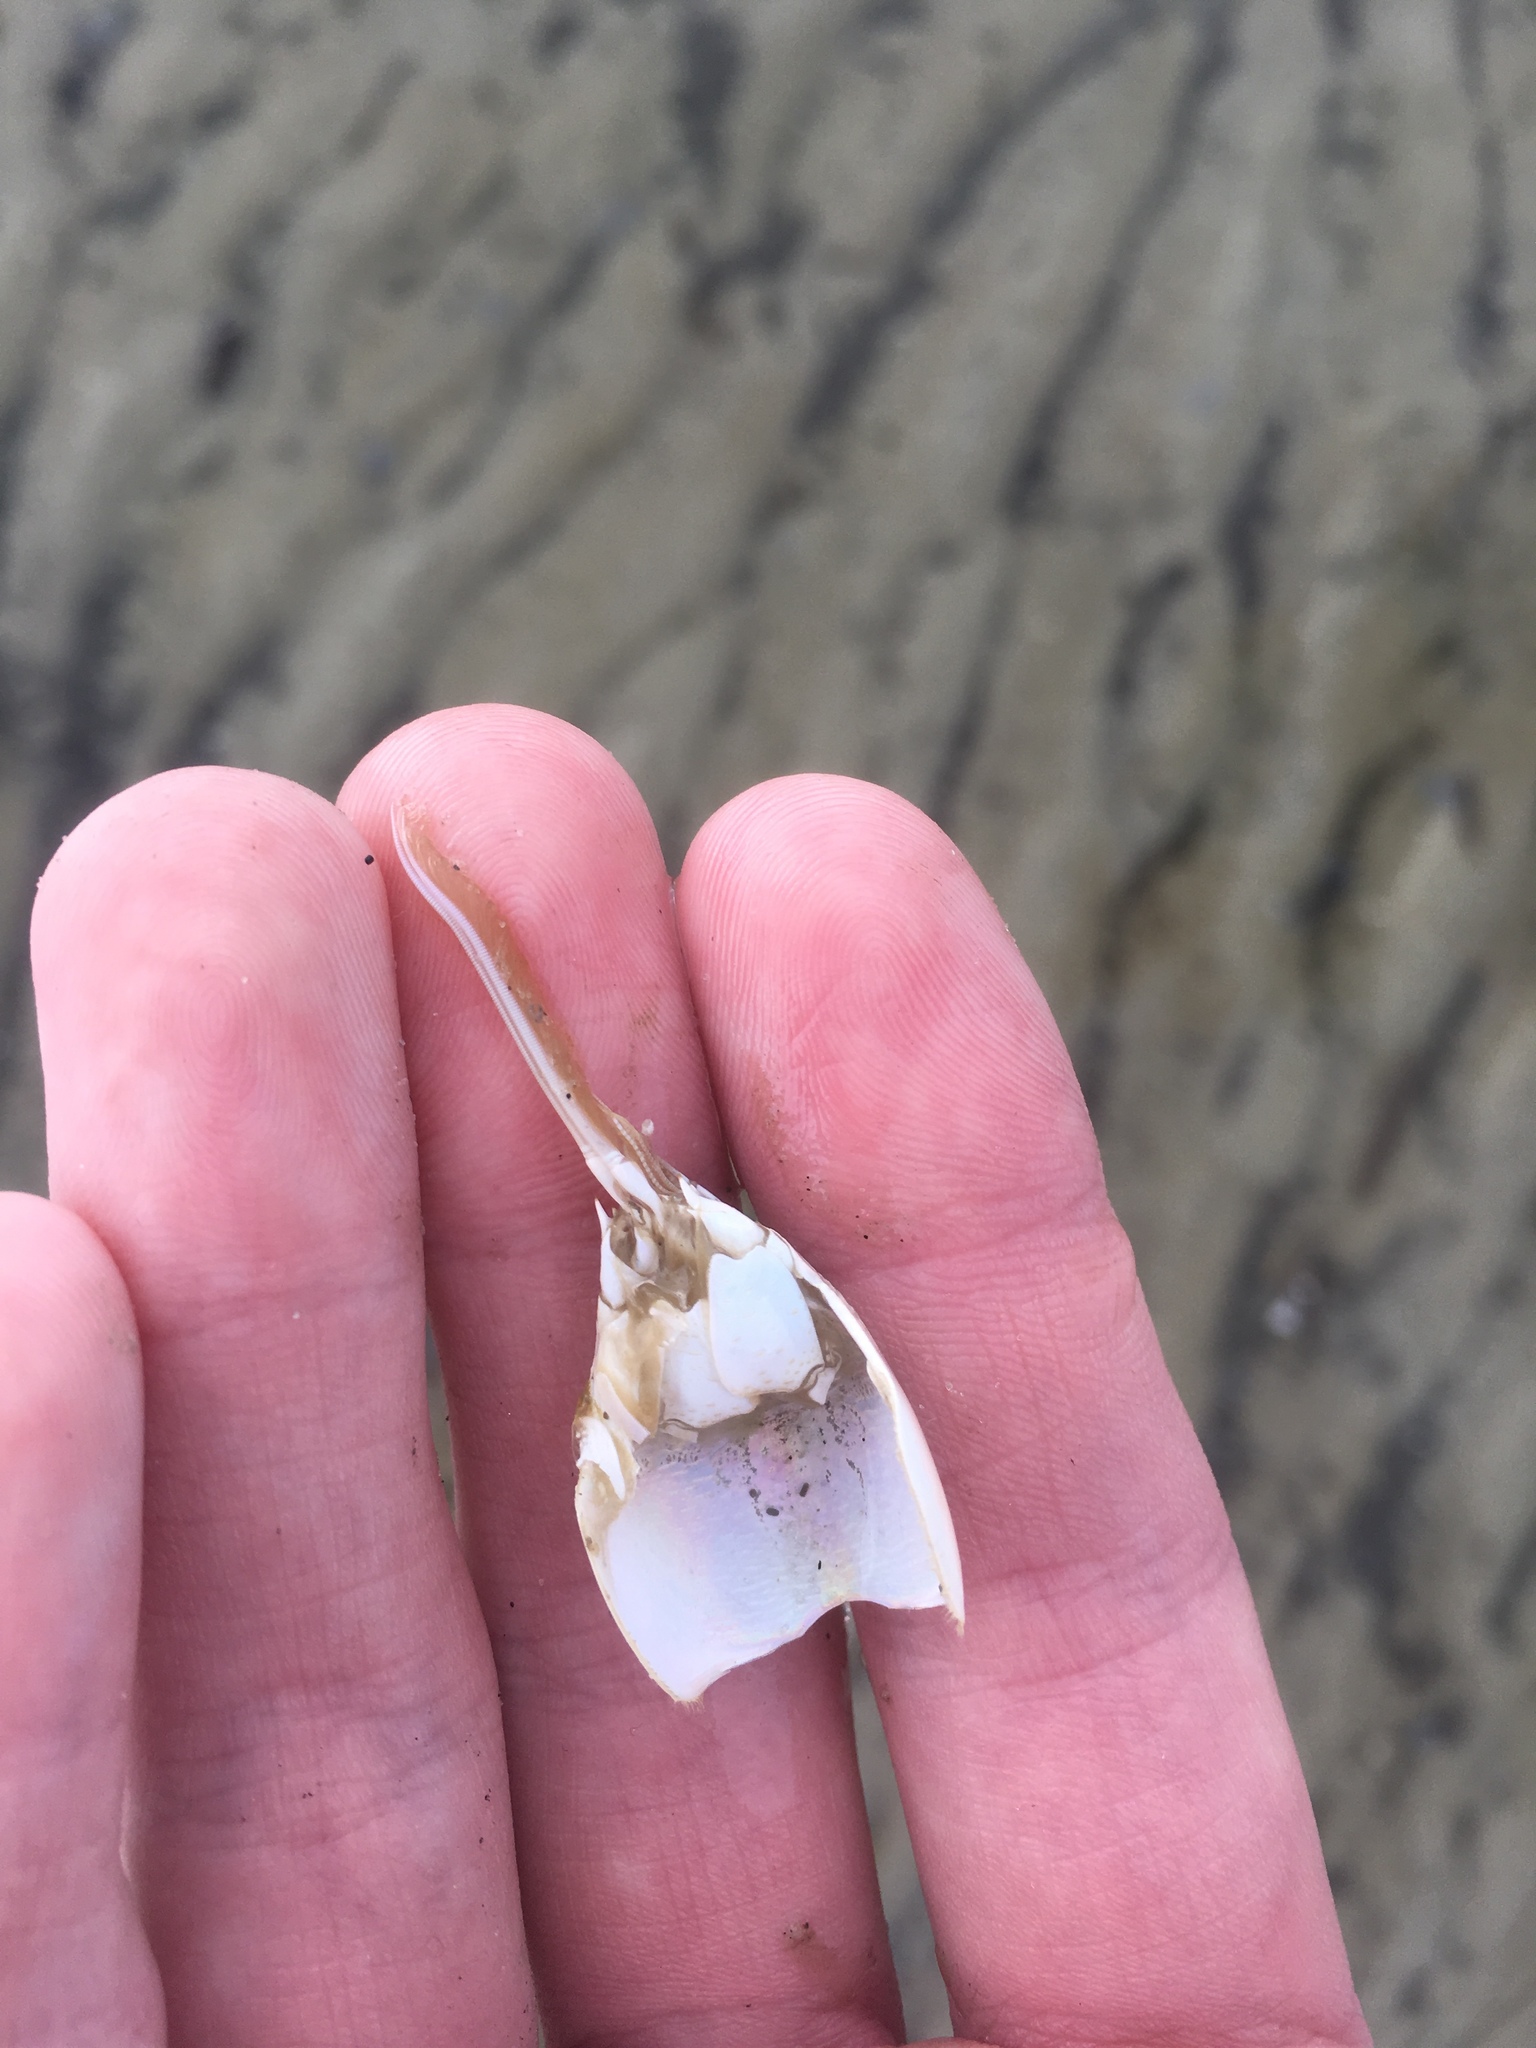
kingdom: Animalia
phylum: Arthropoda
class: Malacostraca
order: Decapoda
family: Hippidae
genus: Emerita
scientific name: Emerita talpoida
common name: Atlantic sand crab
